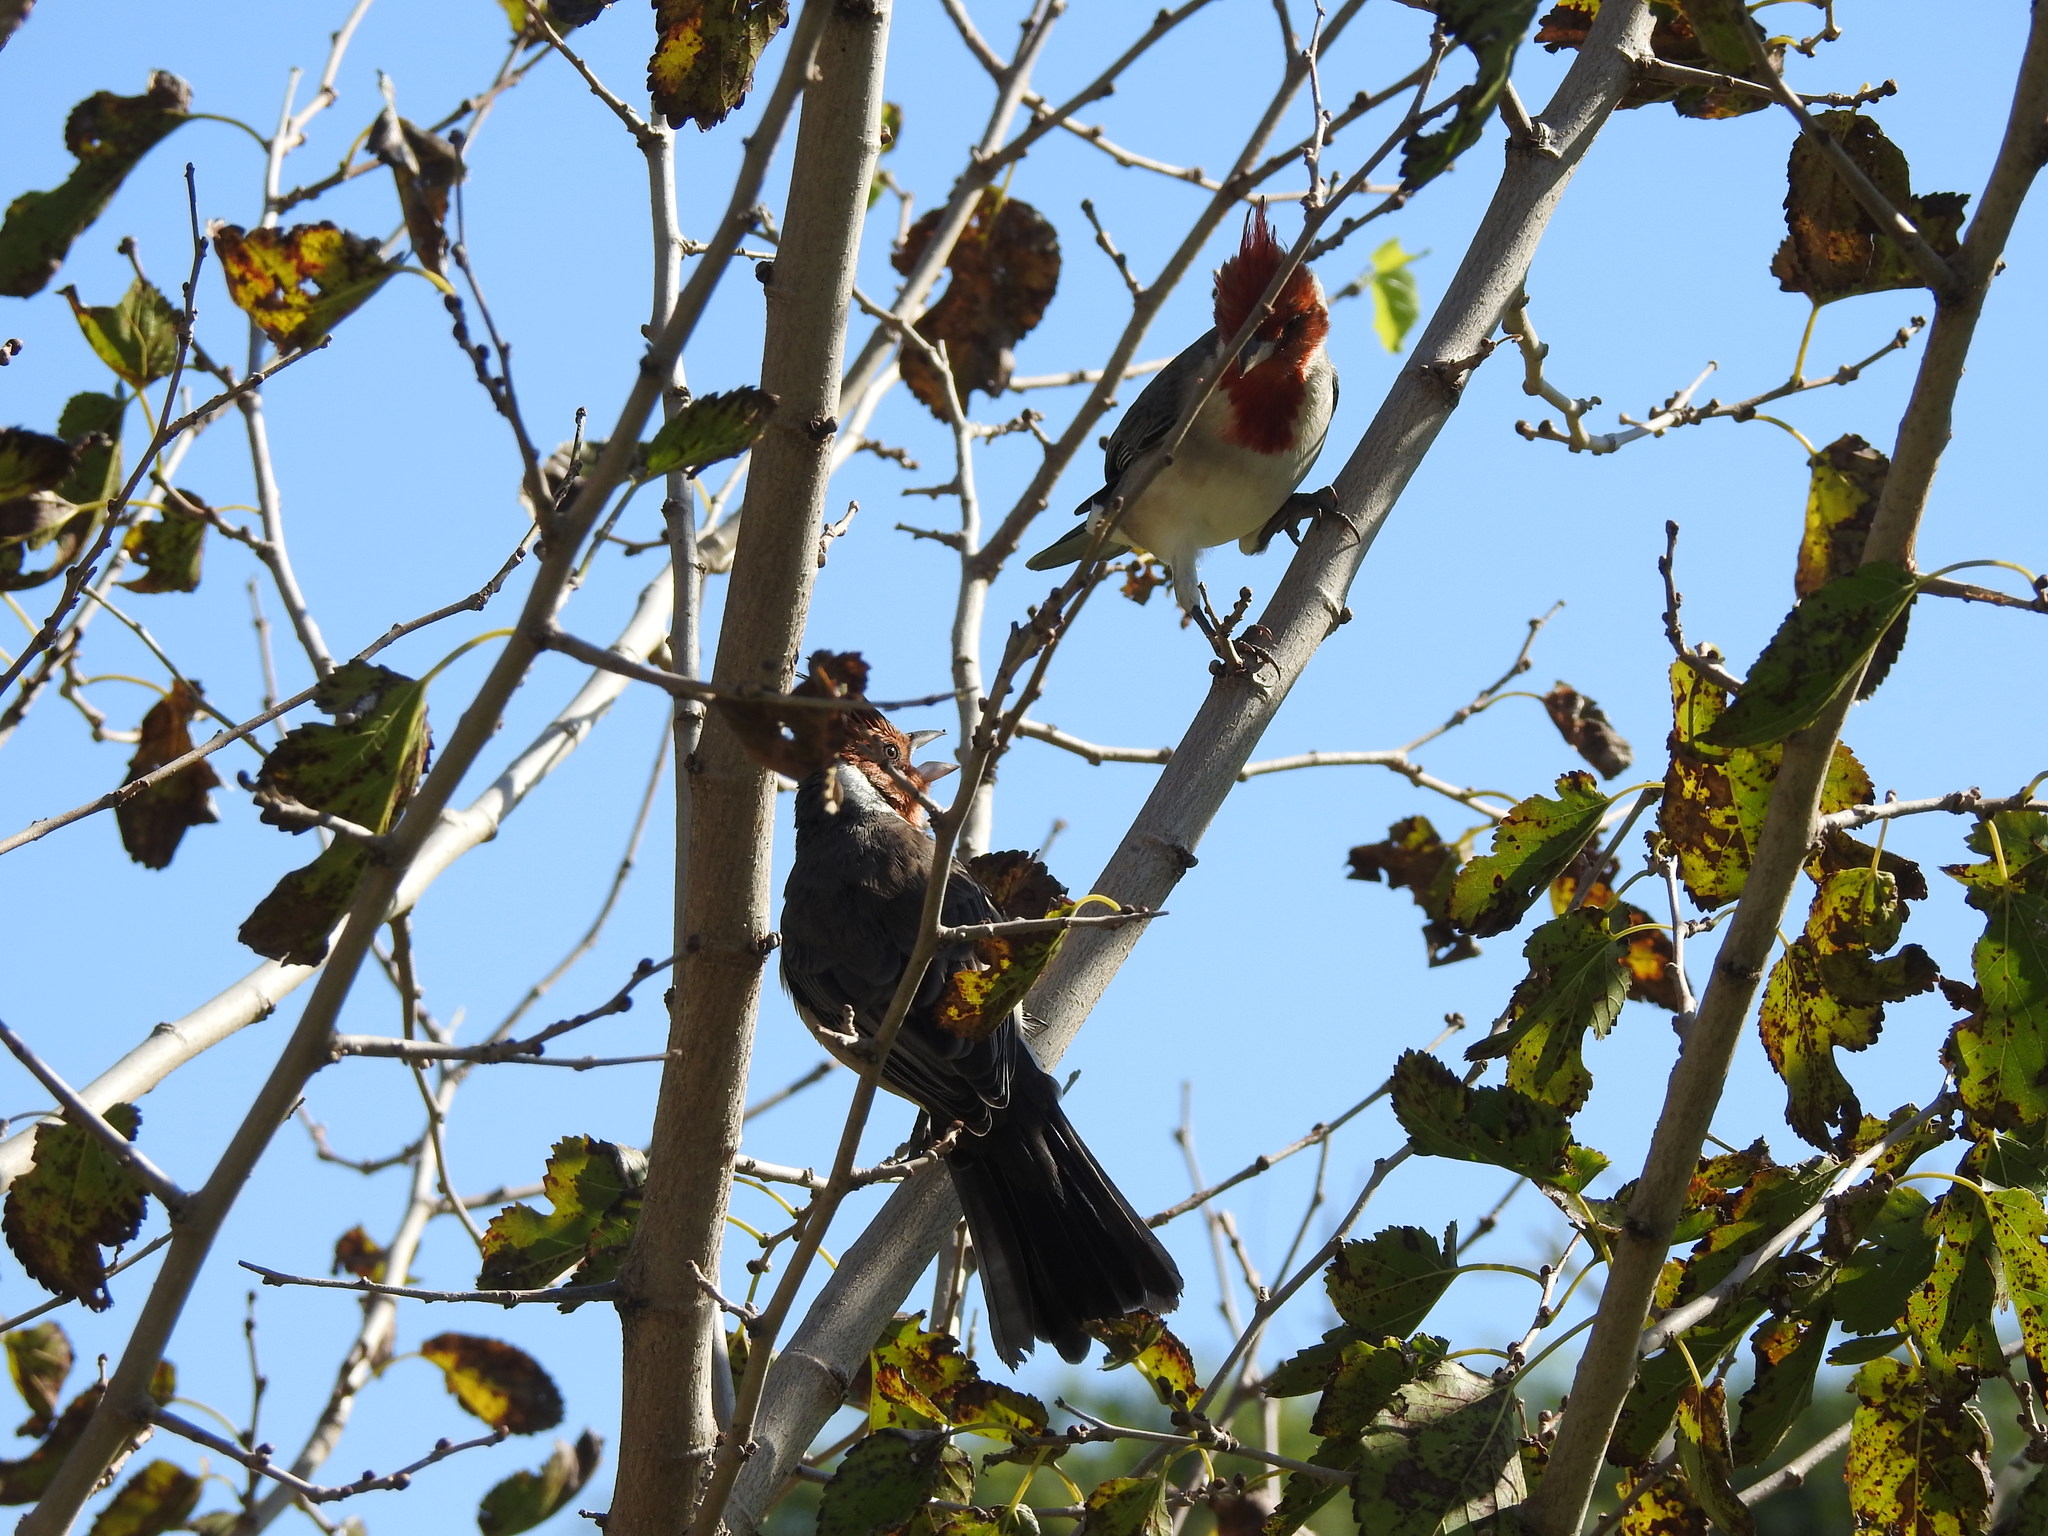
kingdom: Animalia
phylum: Chordata
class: Aves
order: Passeriformes
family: Thraupidae
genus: Paroaria
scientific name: Paroaria coronata
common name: Red-crested cardinal
